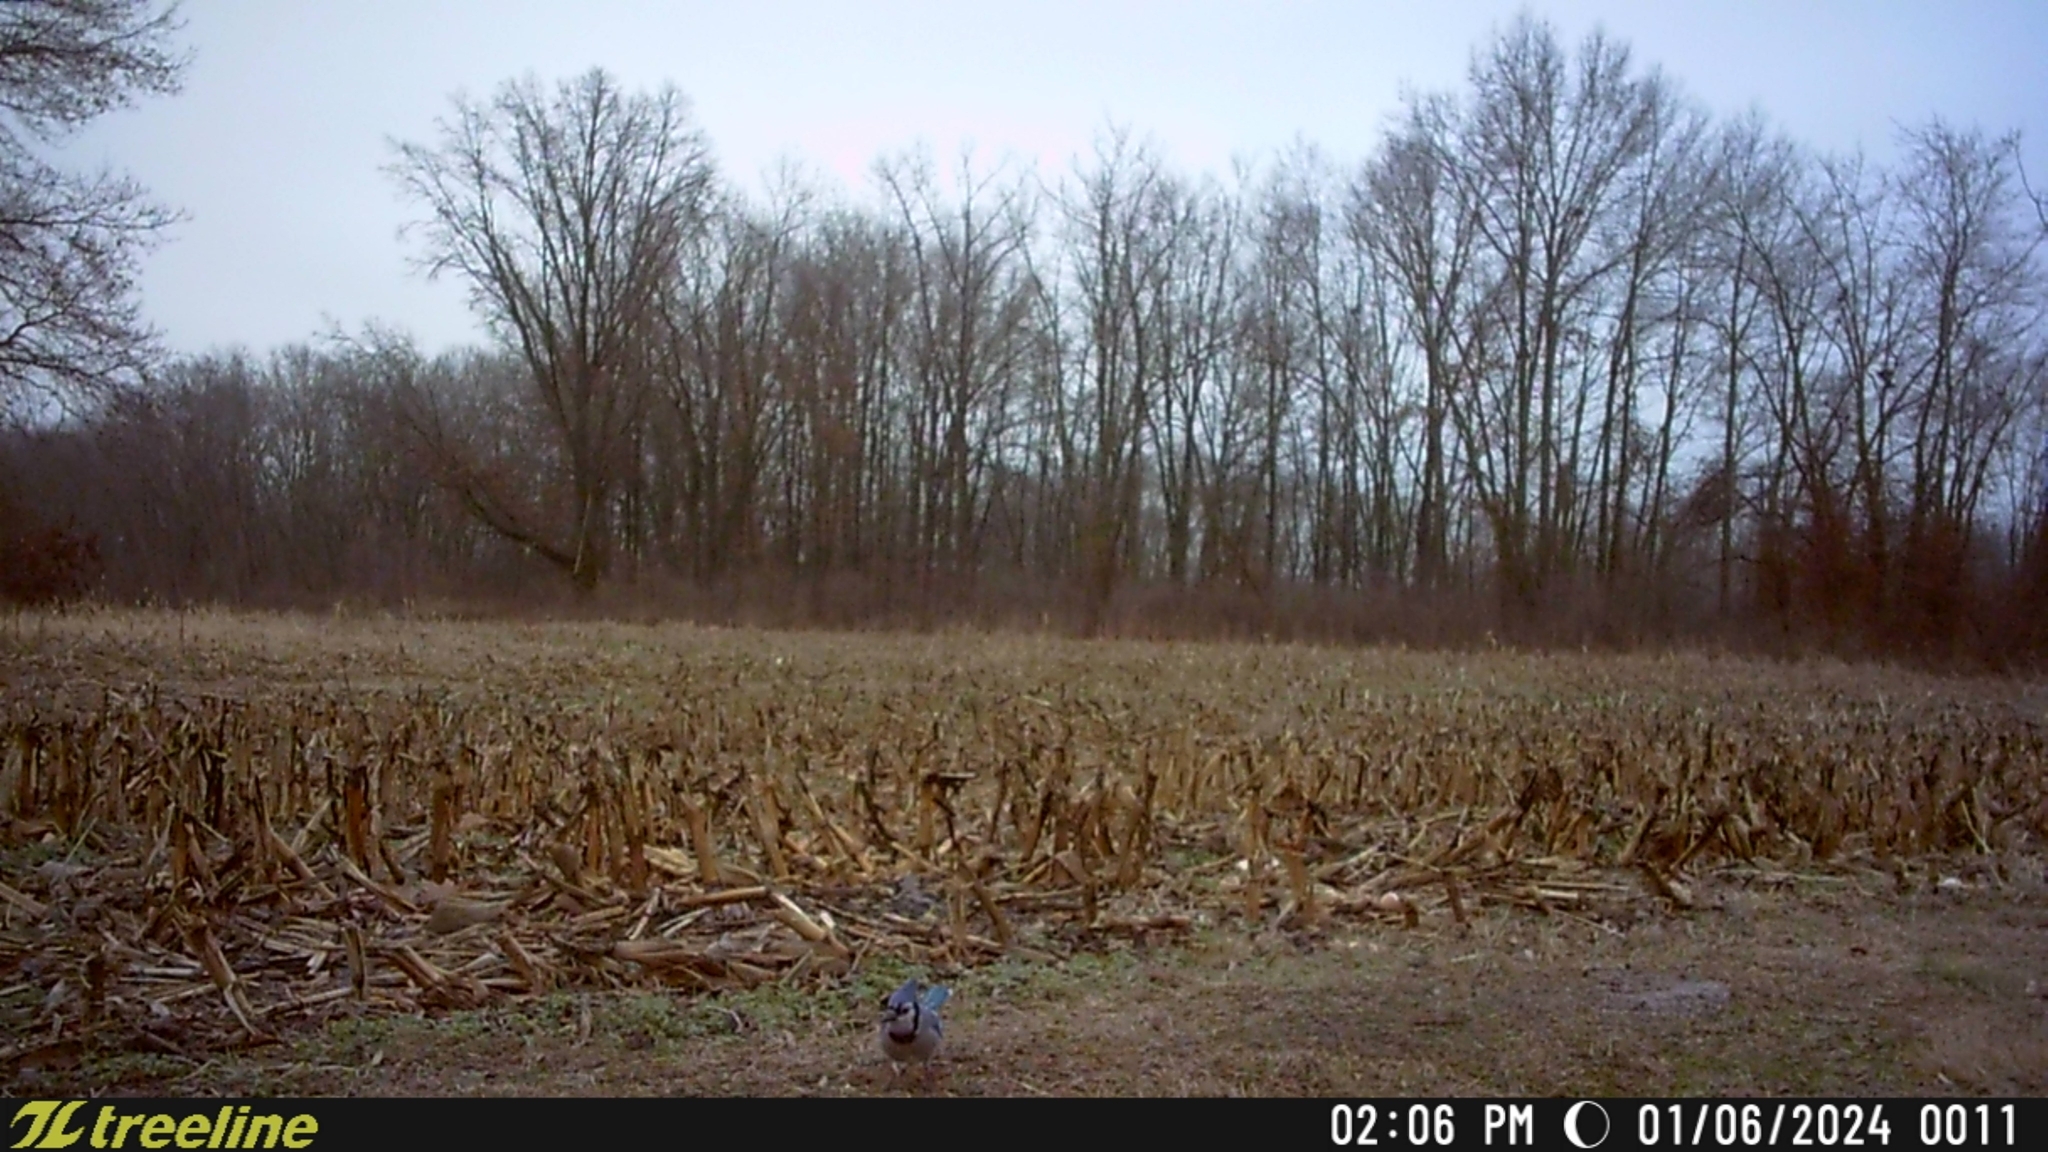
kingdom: Animalia
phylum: Chordata
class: Aves
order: Passeriformes
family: Corvidae
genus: Cyanocitta
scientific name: Cyanocitta cristata
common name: Blue jay
